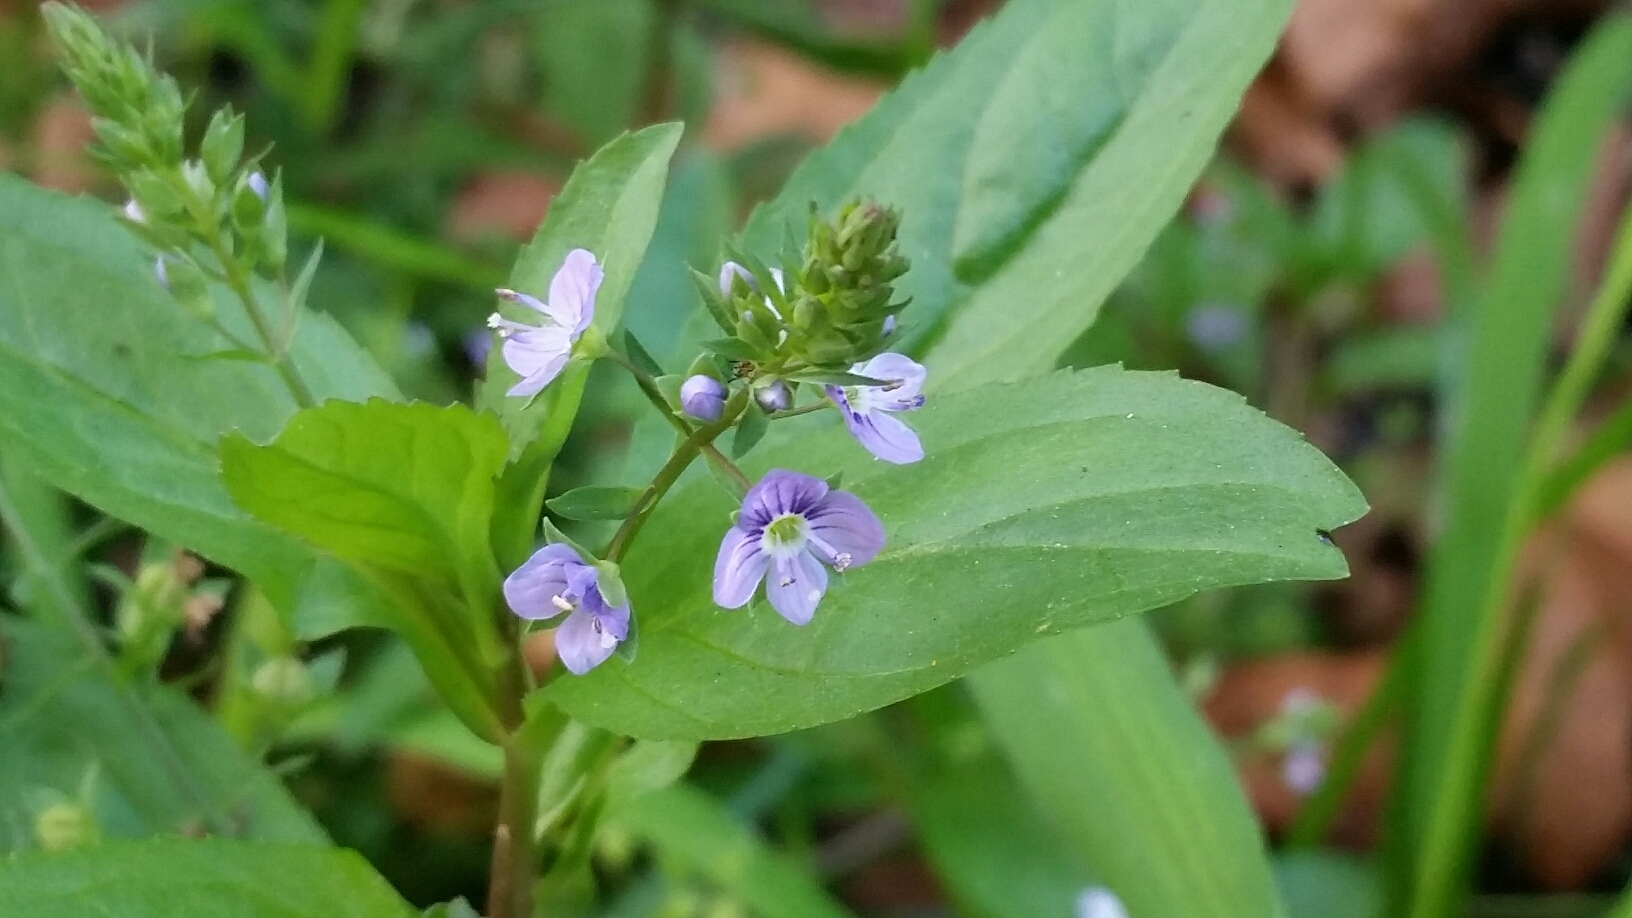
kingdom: Plantae
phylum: Tracheophyta
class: Magnoliopsida
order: Lamiales
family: Plantaginaceae
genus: Veronica
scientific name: Veronica anagallis-aquatica
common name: Water speedwell
